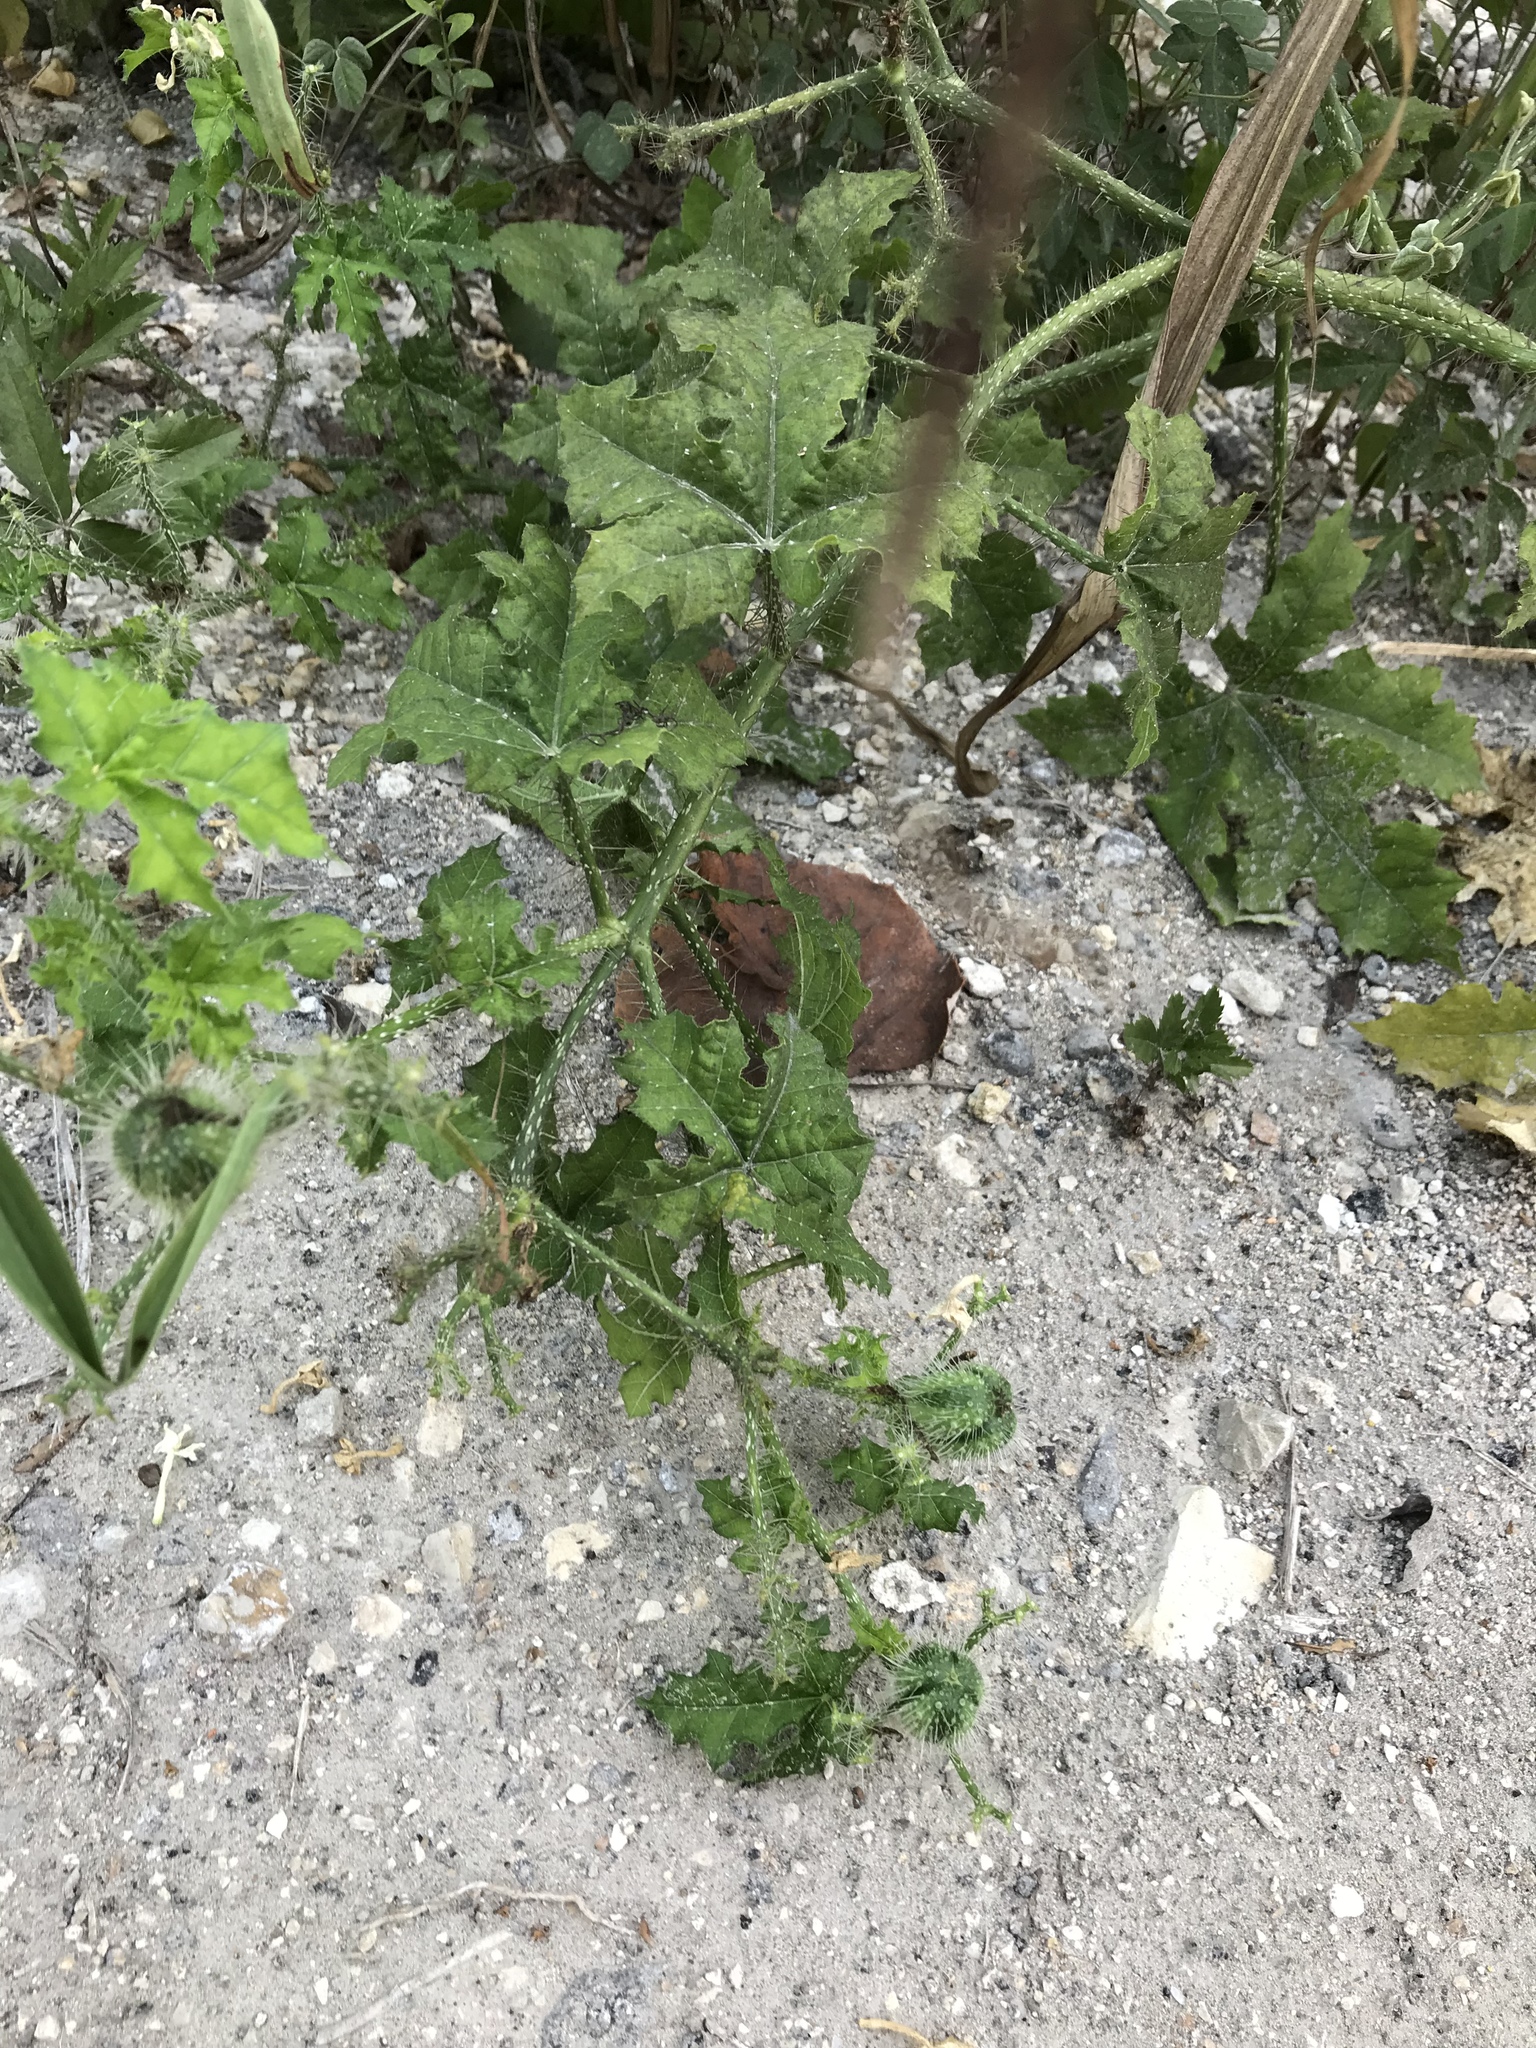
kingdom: Plantae
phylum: Tracheophyta
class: Magnoliopsida
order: Malpighiales
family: Euphorbiaceae
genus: Cnidoscolus
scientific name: Cnidoscolus texanus
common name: Texas bull-nettle
